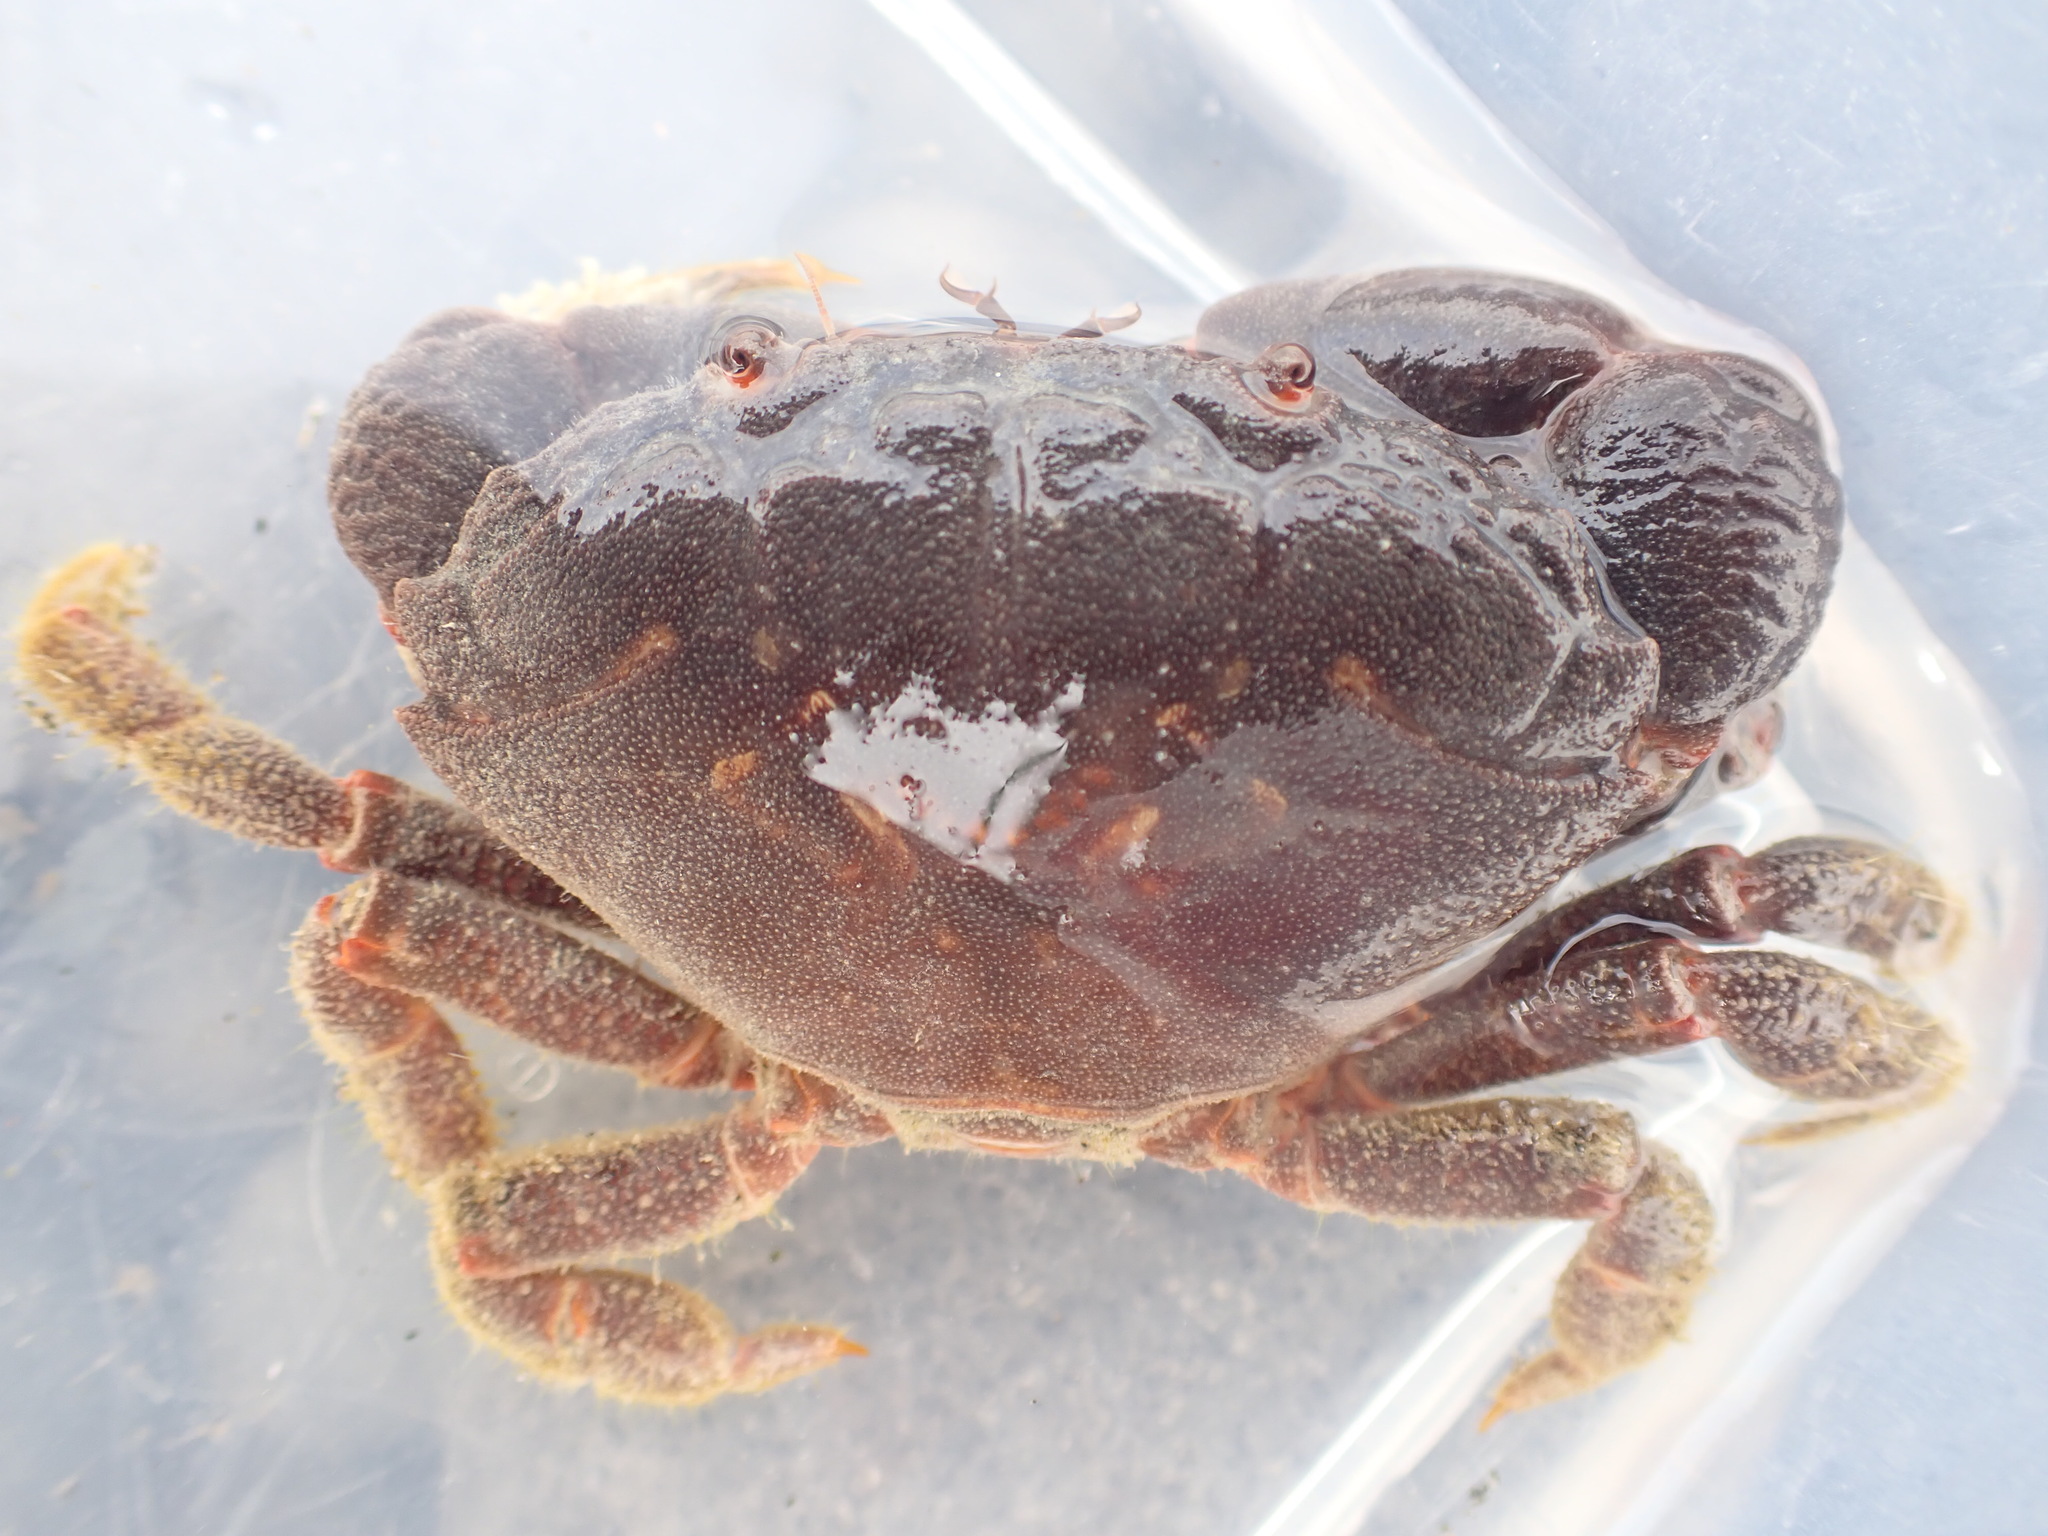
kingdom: Animalia
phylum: Arthropoda
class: Malacostraca
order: Decapoda
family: Oziidae
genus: Ozius
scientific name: Ozius deplanatus
